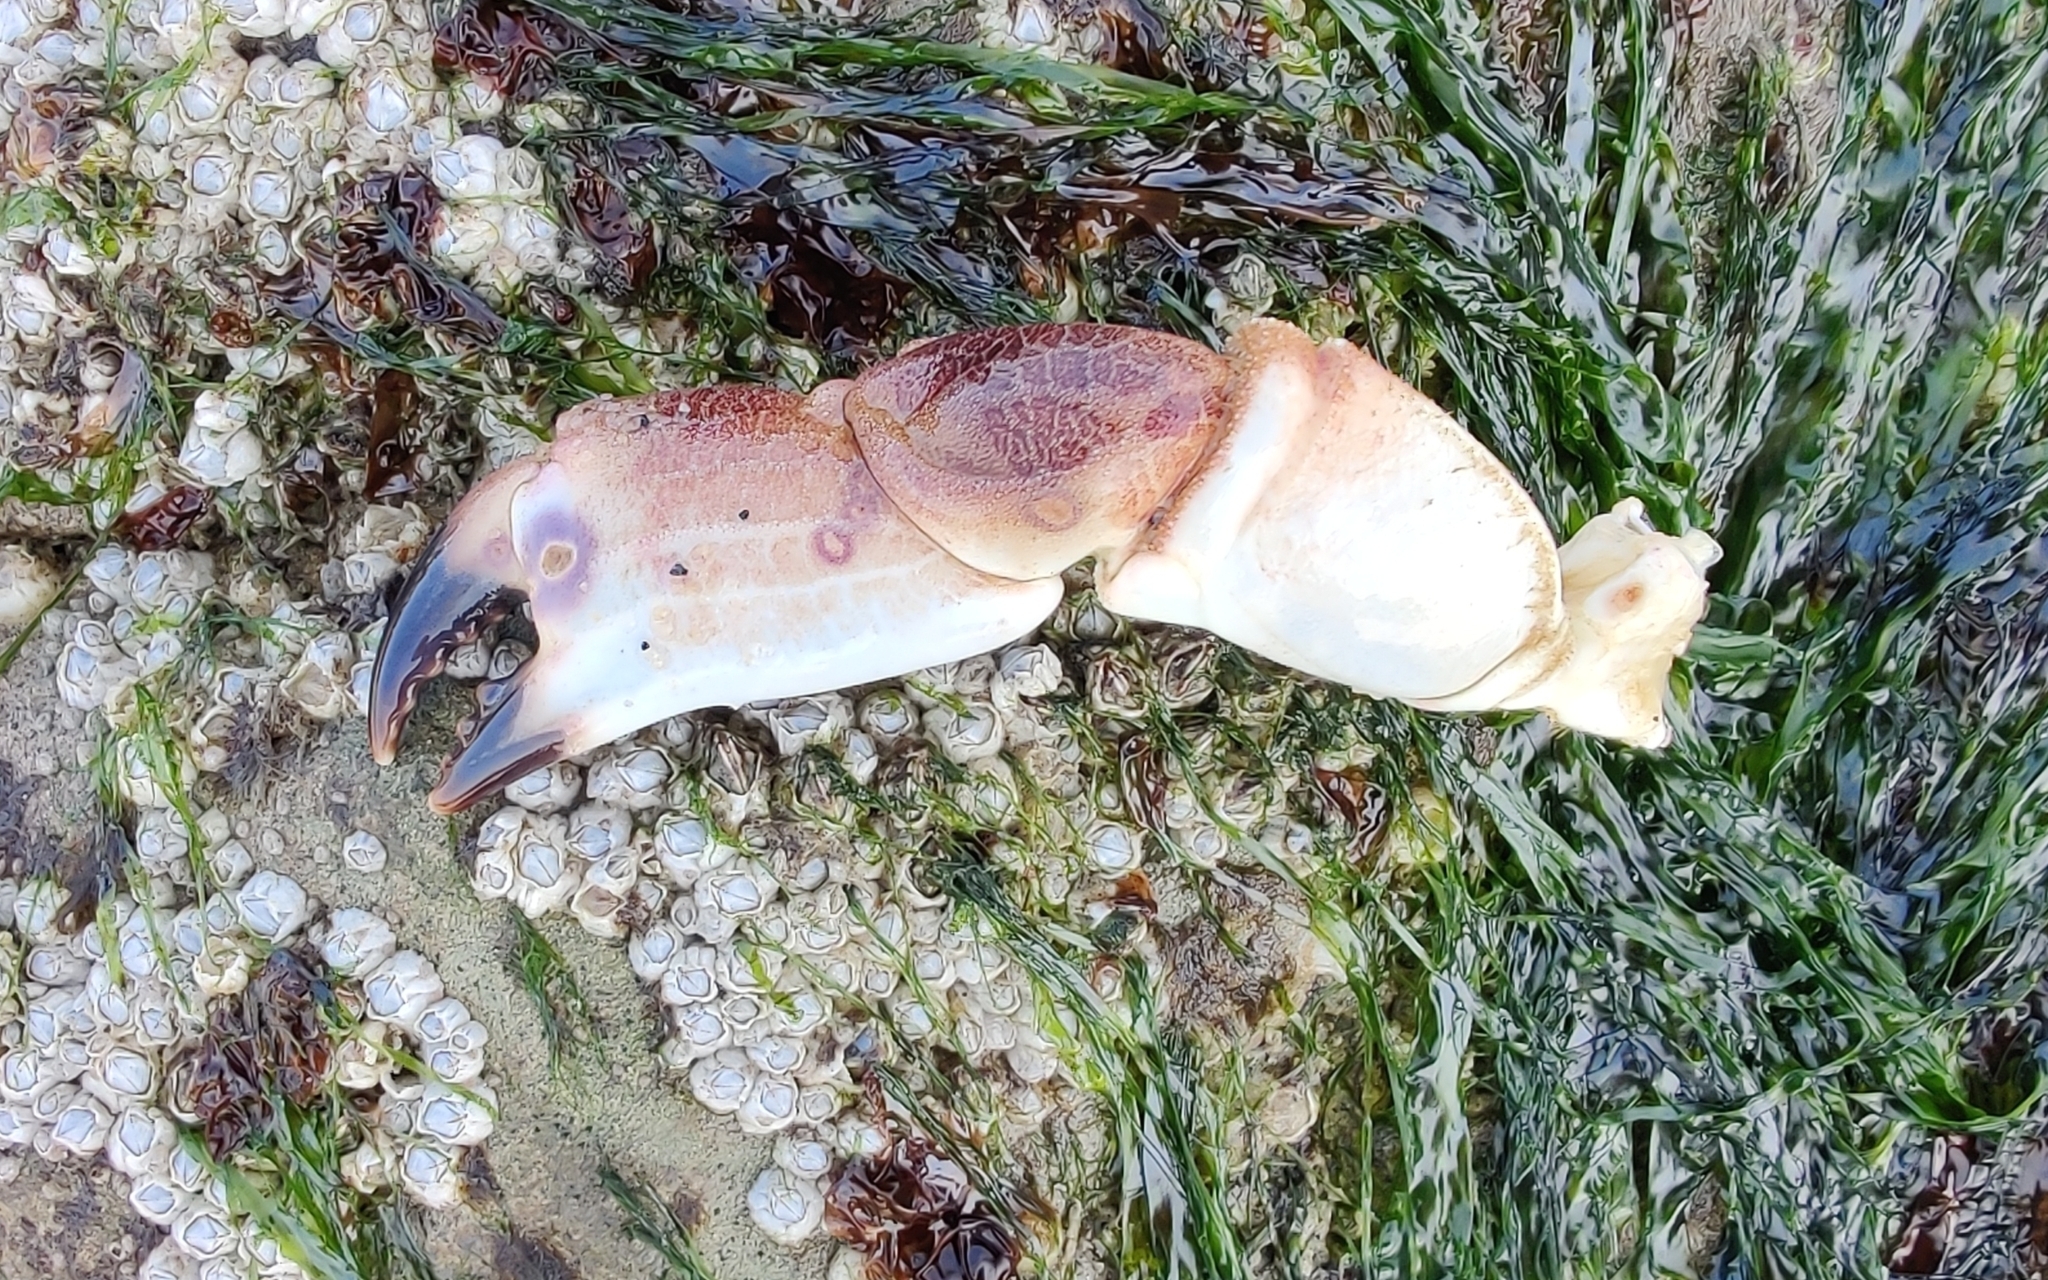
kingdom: Animalia
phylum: Arthropoda
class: Malacostraca
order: Decapoda
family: Cancridae
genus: Cancer
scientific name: Cancer pagurus
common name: Edible crab
